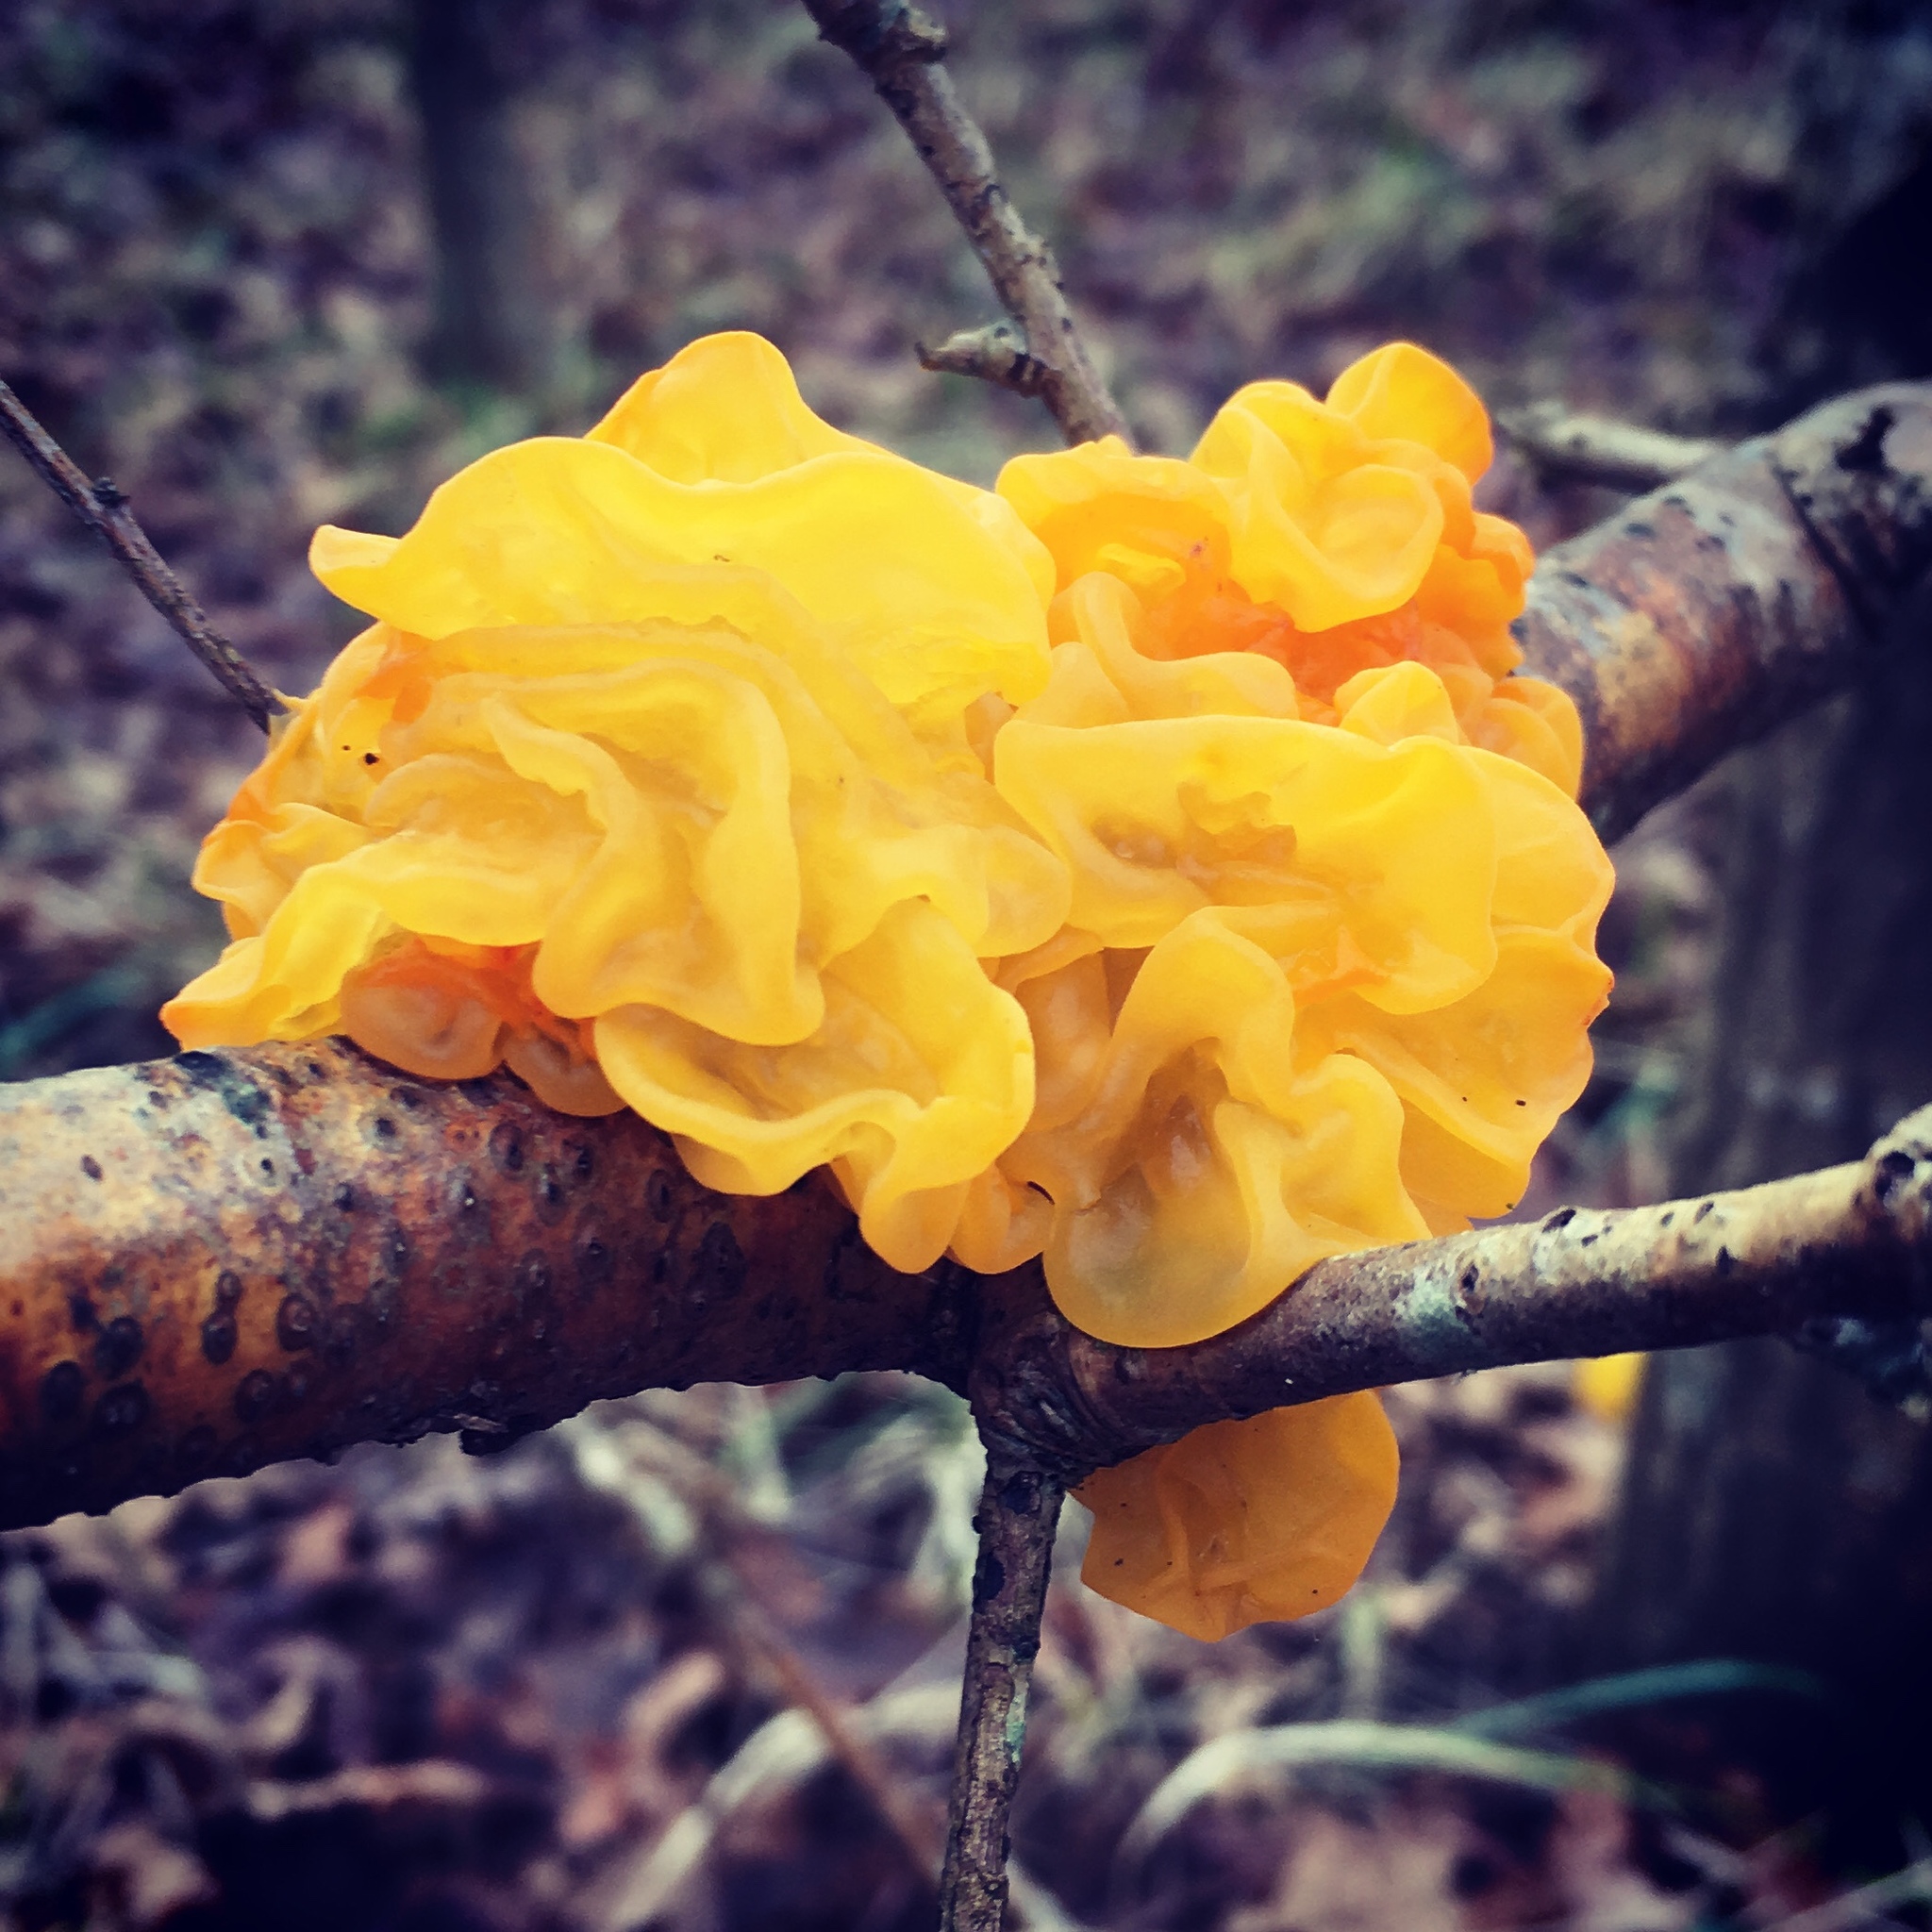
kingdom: Fungi
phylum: Basidiomycota
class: Tremellomycetes
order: Tremellales
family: Tremellaceae
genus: Tremella
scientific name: Tremella mesenterica
